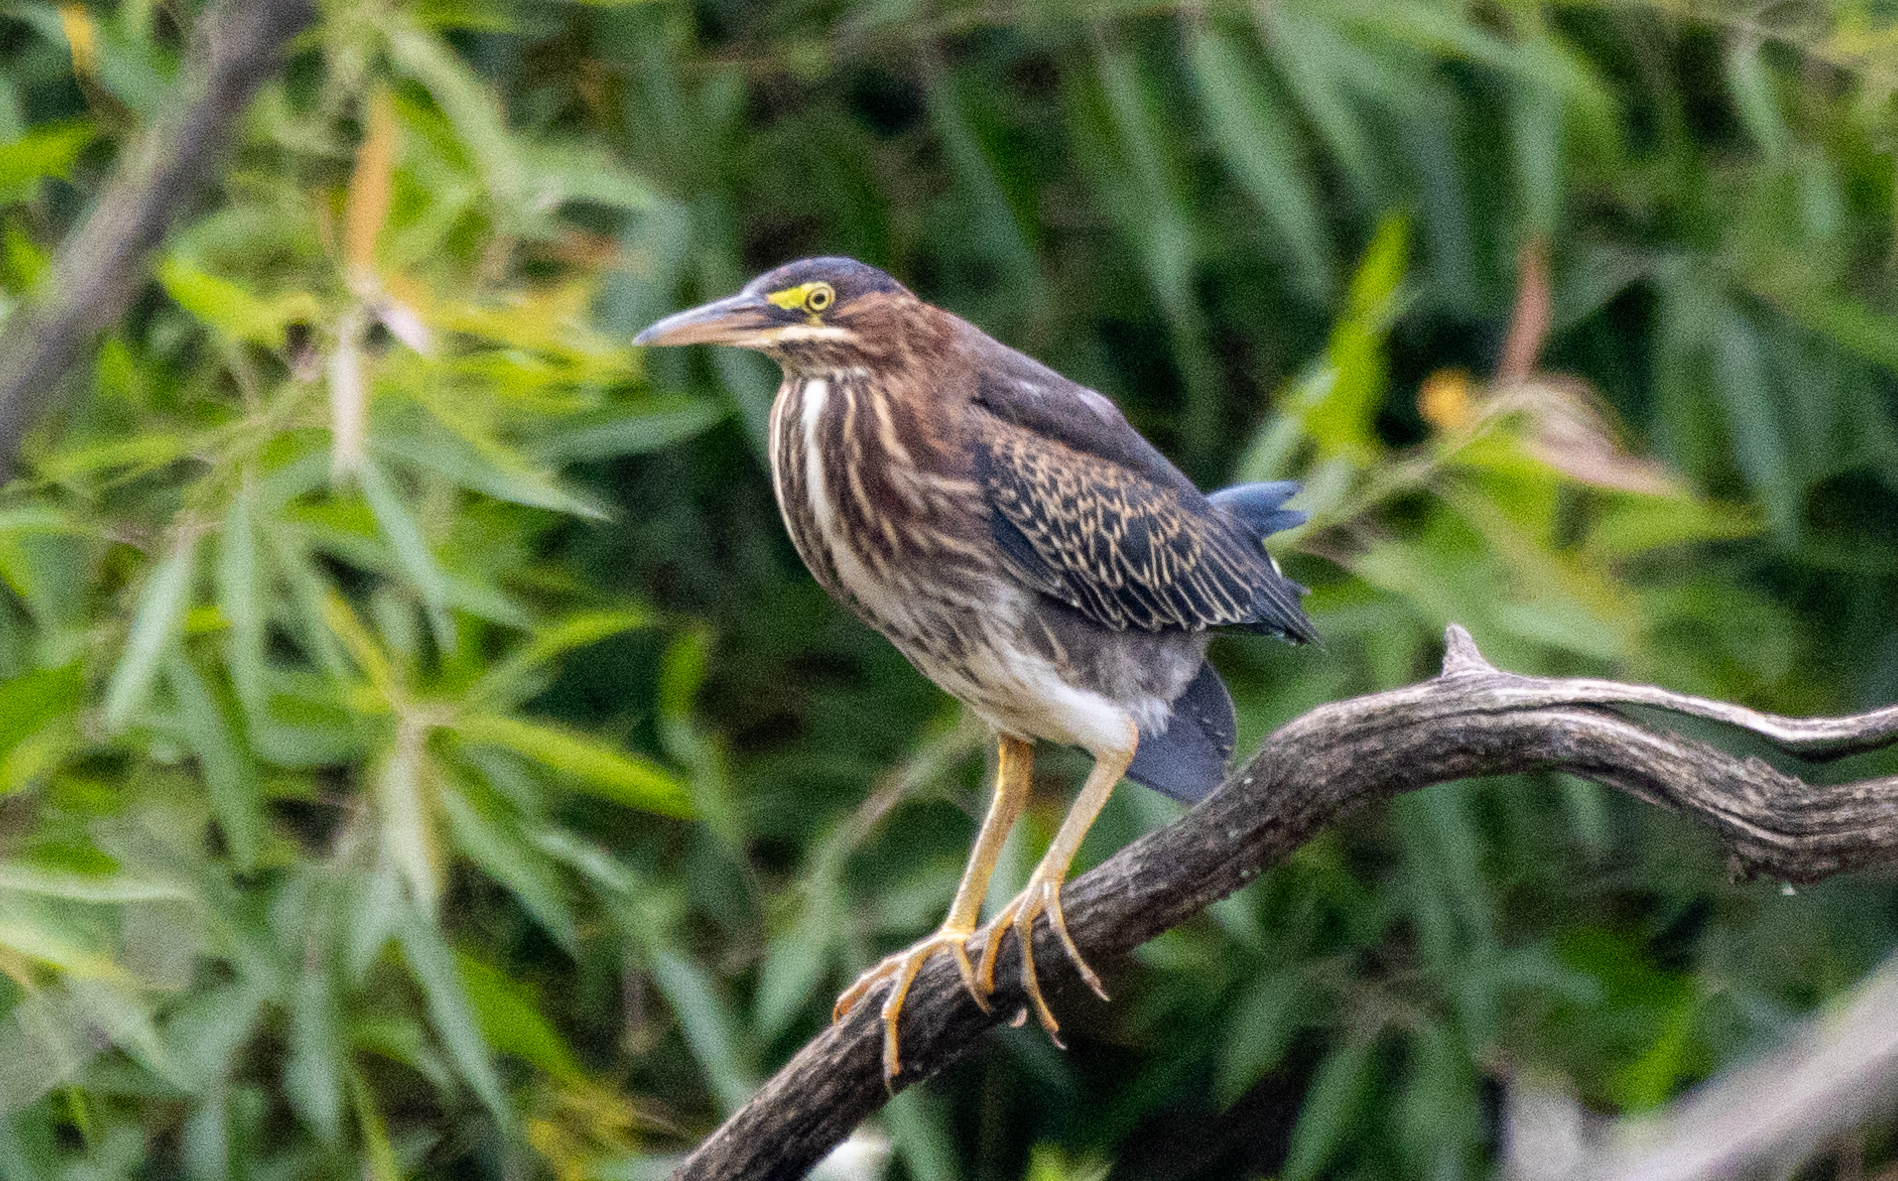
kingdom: Animalia
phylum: Chordata
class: Aves
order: Pelecaniformes
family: Ardeidae
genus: Butorides
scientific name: Butorides virescens
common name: Green heron
